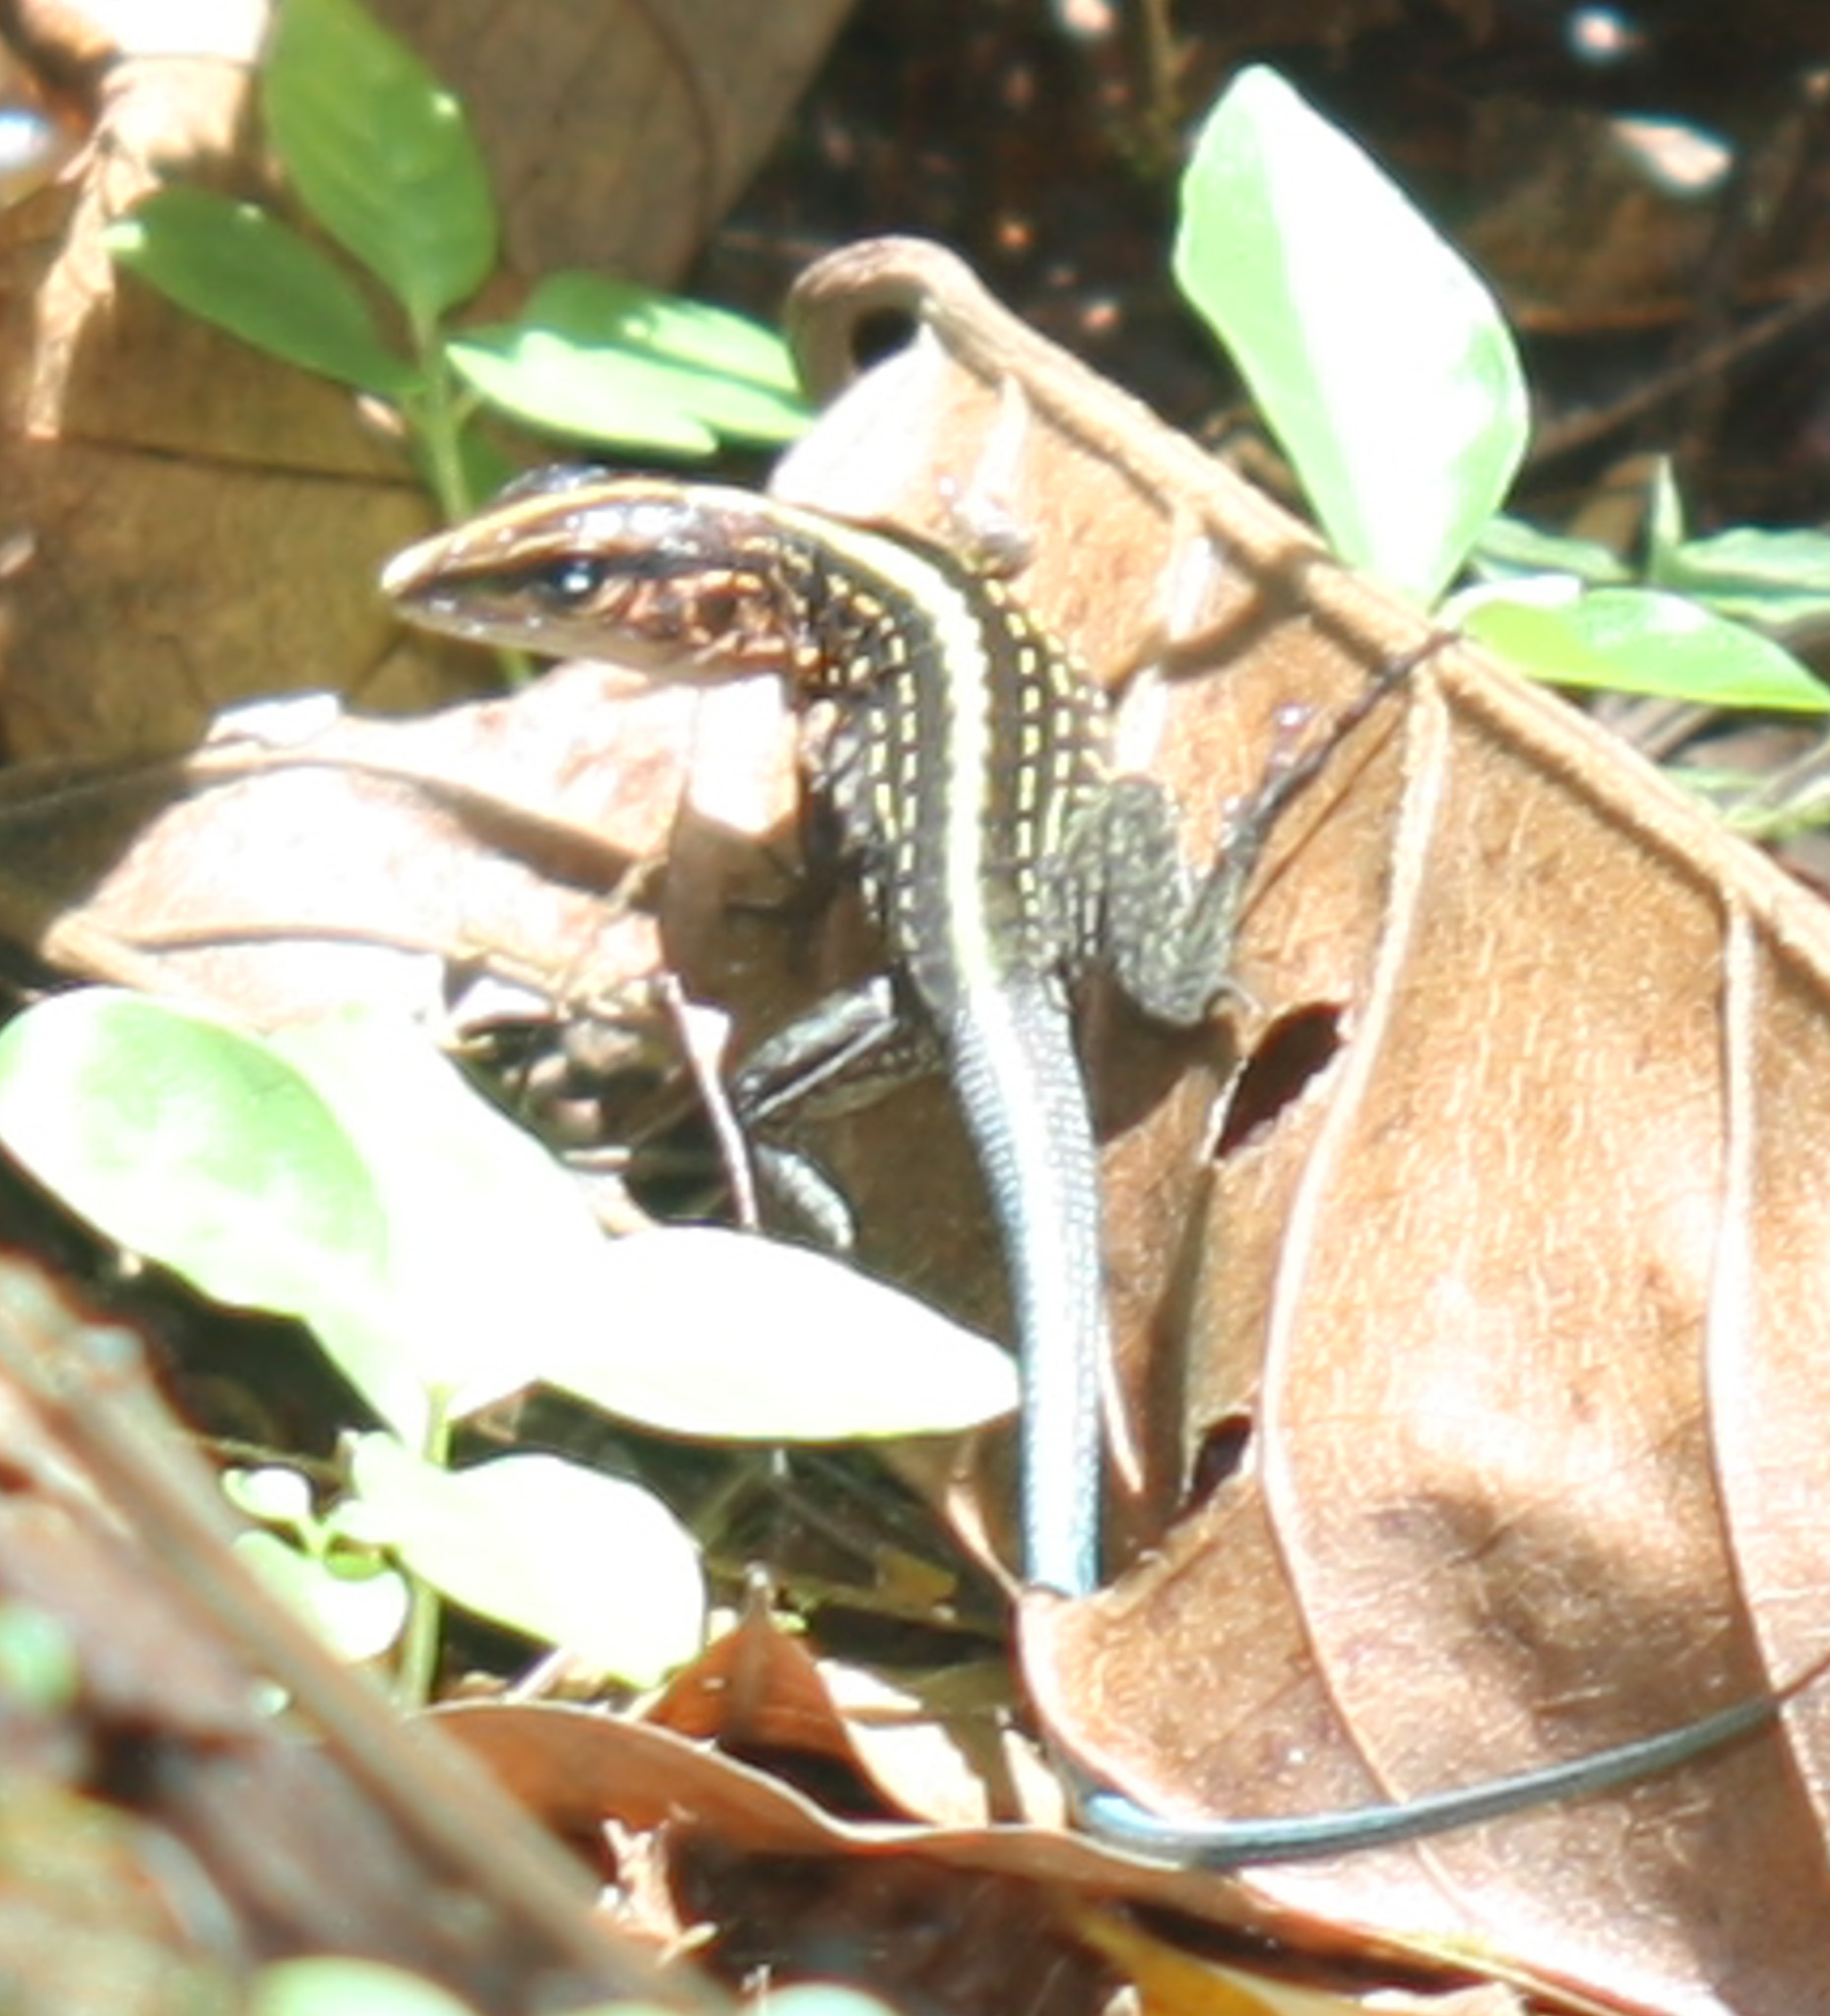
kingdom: Animalia
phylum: Chordata
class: Squamata
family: Teiidae
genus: Holcosus
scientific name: Holcosus festivus
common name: Middle american ameiva
